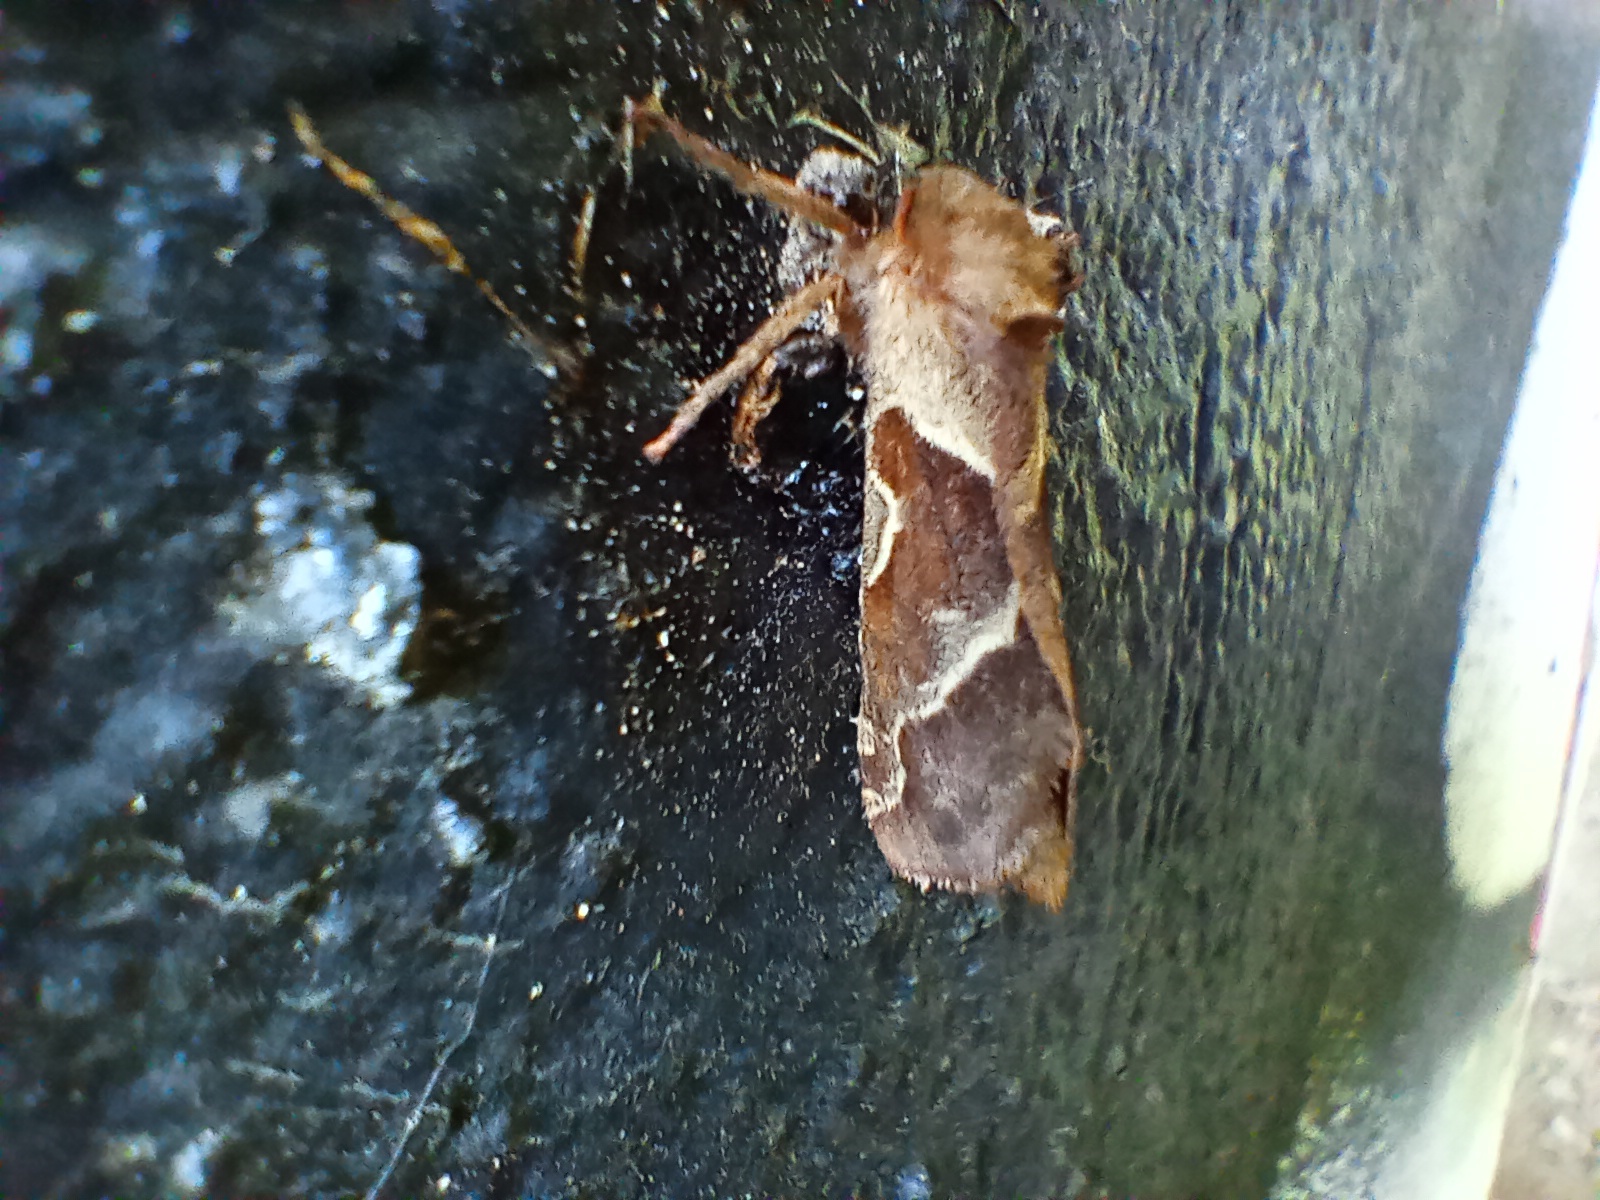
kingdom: Animalia
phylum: Arthropoda
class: Insecta
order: Lepidoptera
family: Hepialidae
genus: Triodia
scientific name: Triodia sylvina
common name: Orange swift
